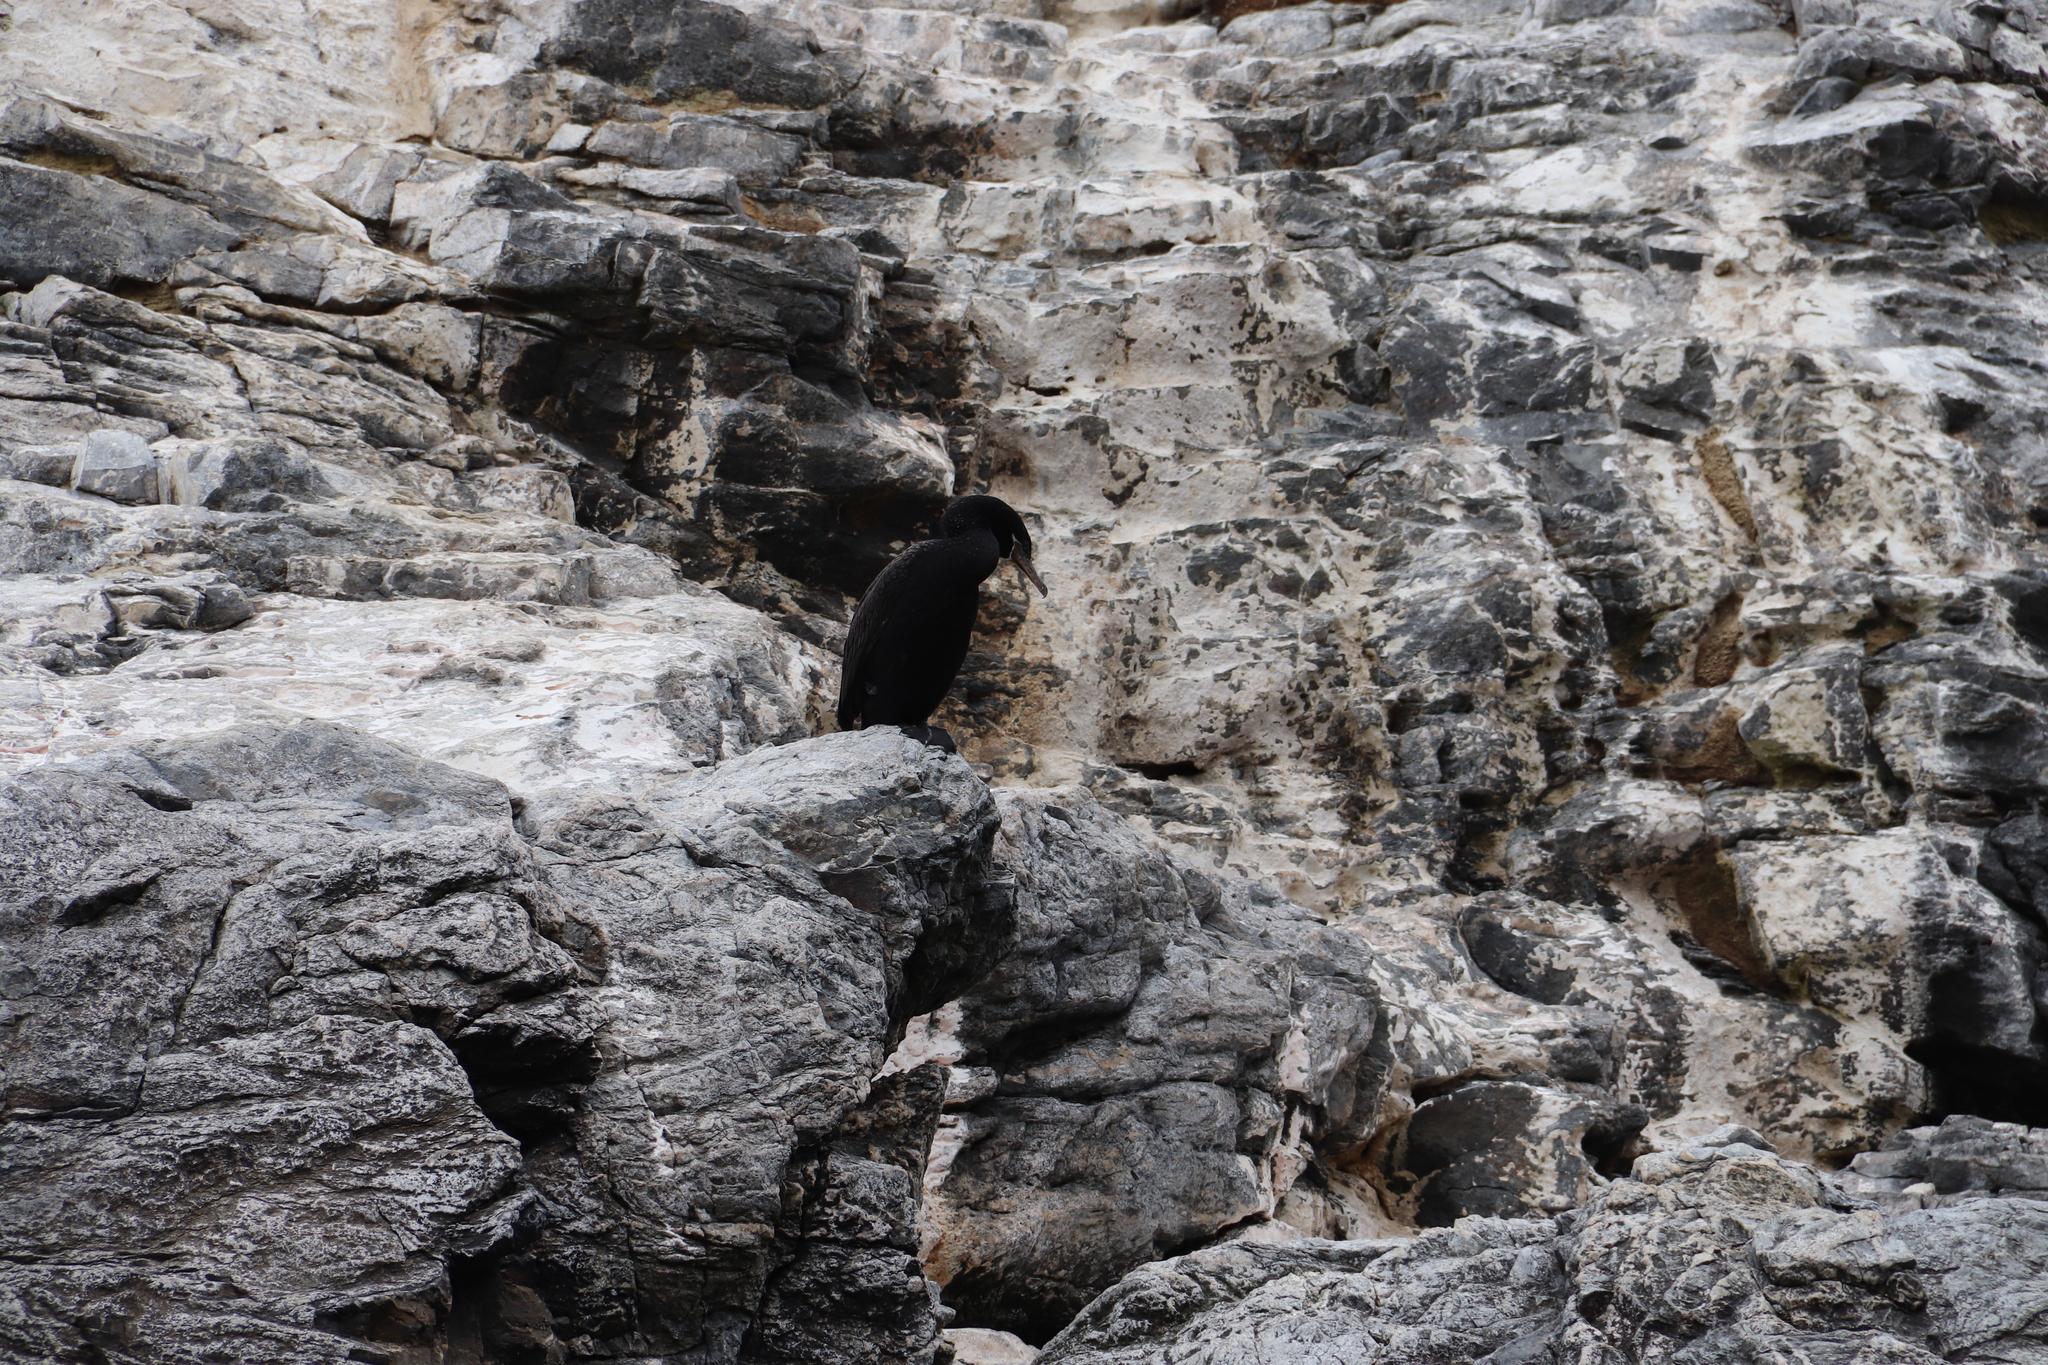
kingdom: Animalia
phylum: Chordata
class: Aves
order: Suliformes
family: Phalacrocoracidae
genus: Phalacrocorax
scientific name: Phalacrocorax brasilianus
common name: Neotropic cormorant
